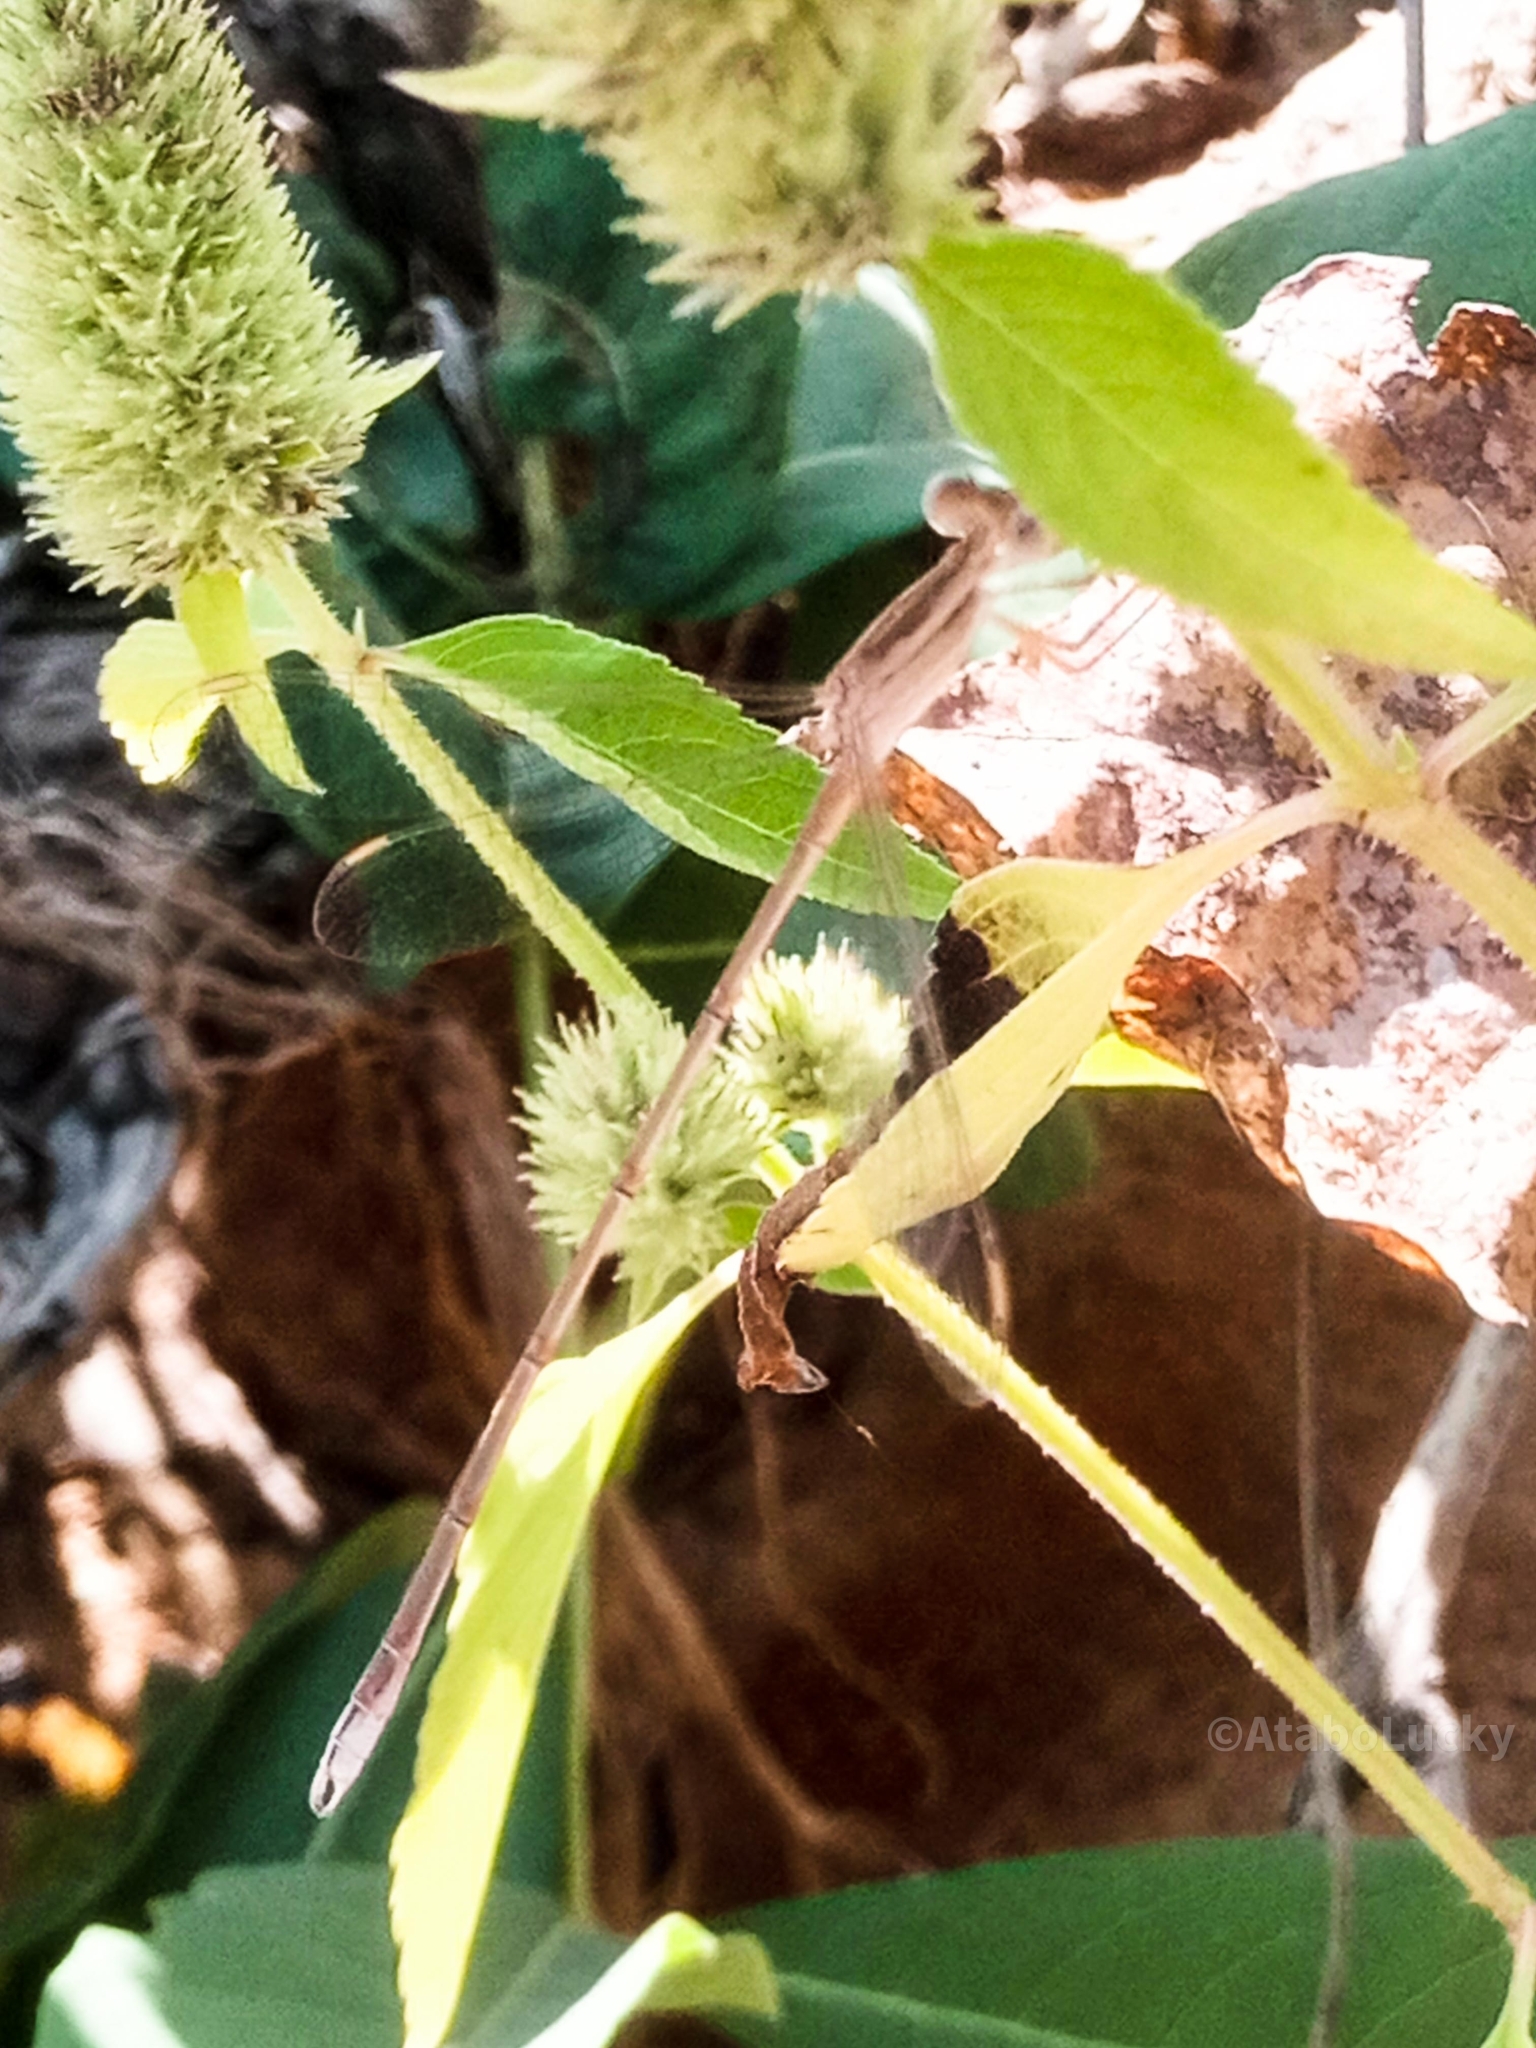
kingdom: Animalia
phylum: Arthropoda
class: Insecta
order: Odonata
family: Lestidae
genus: Lestes
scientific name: Lestes pallidus
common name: Pallid spreadwing
